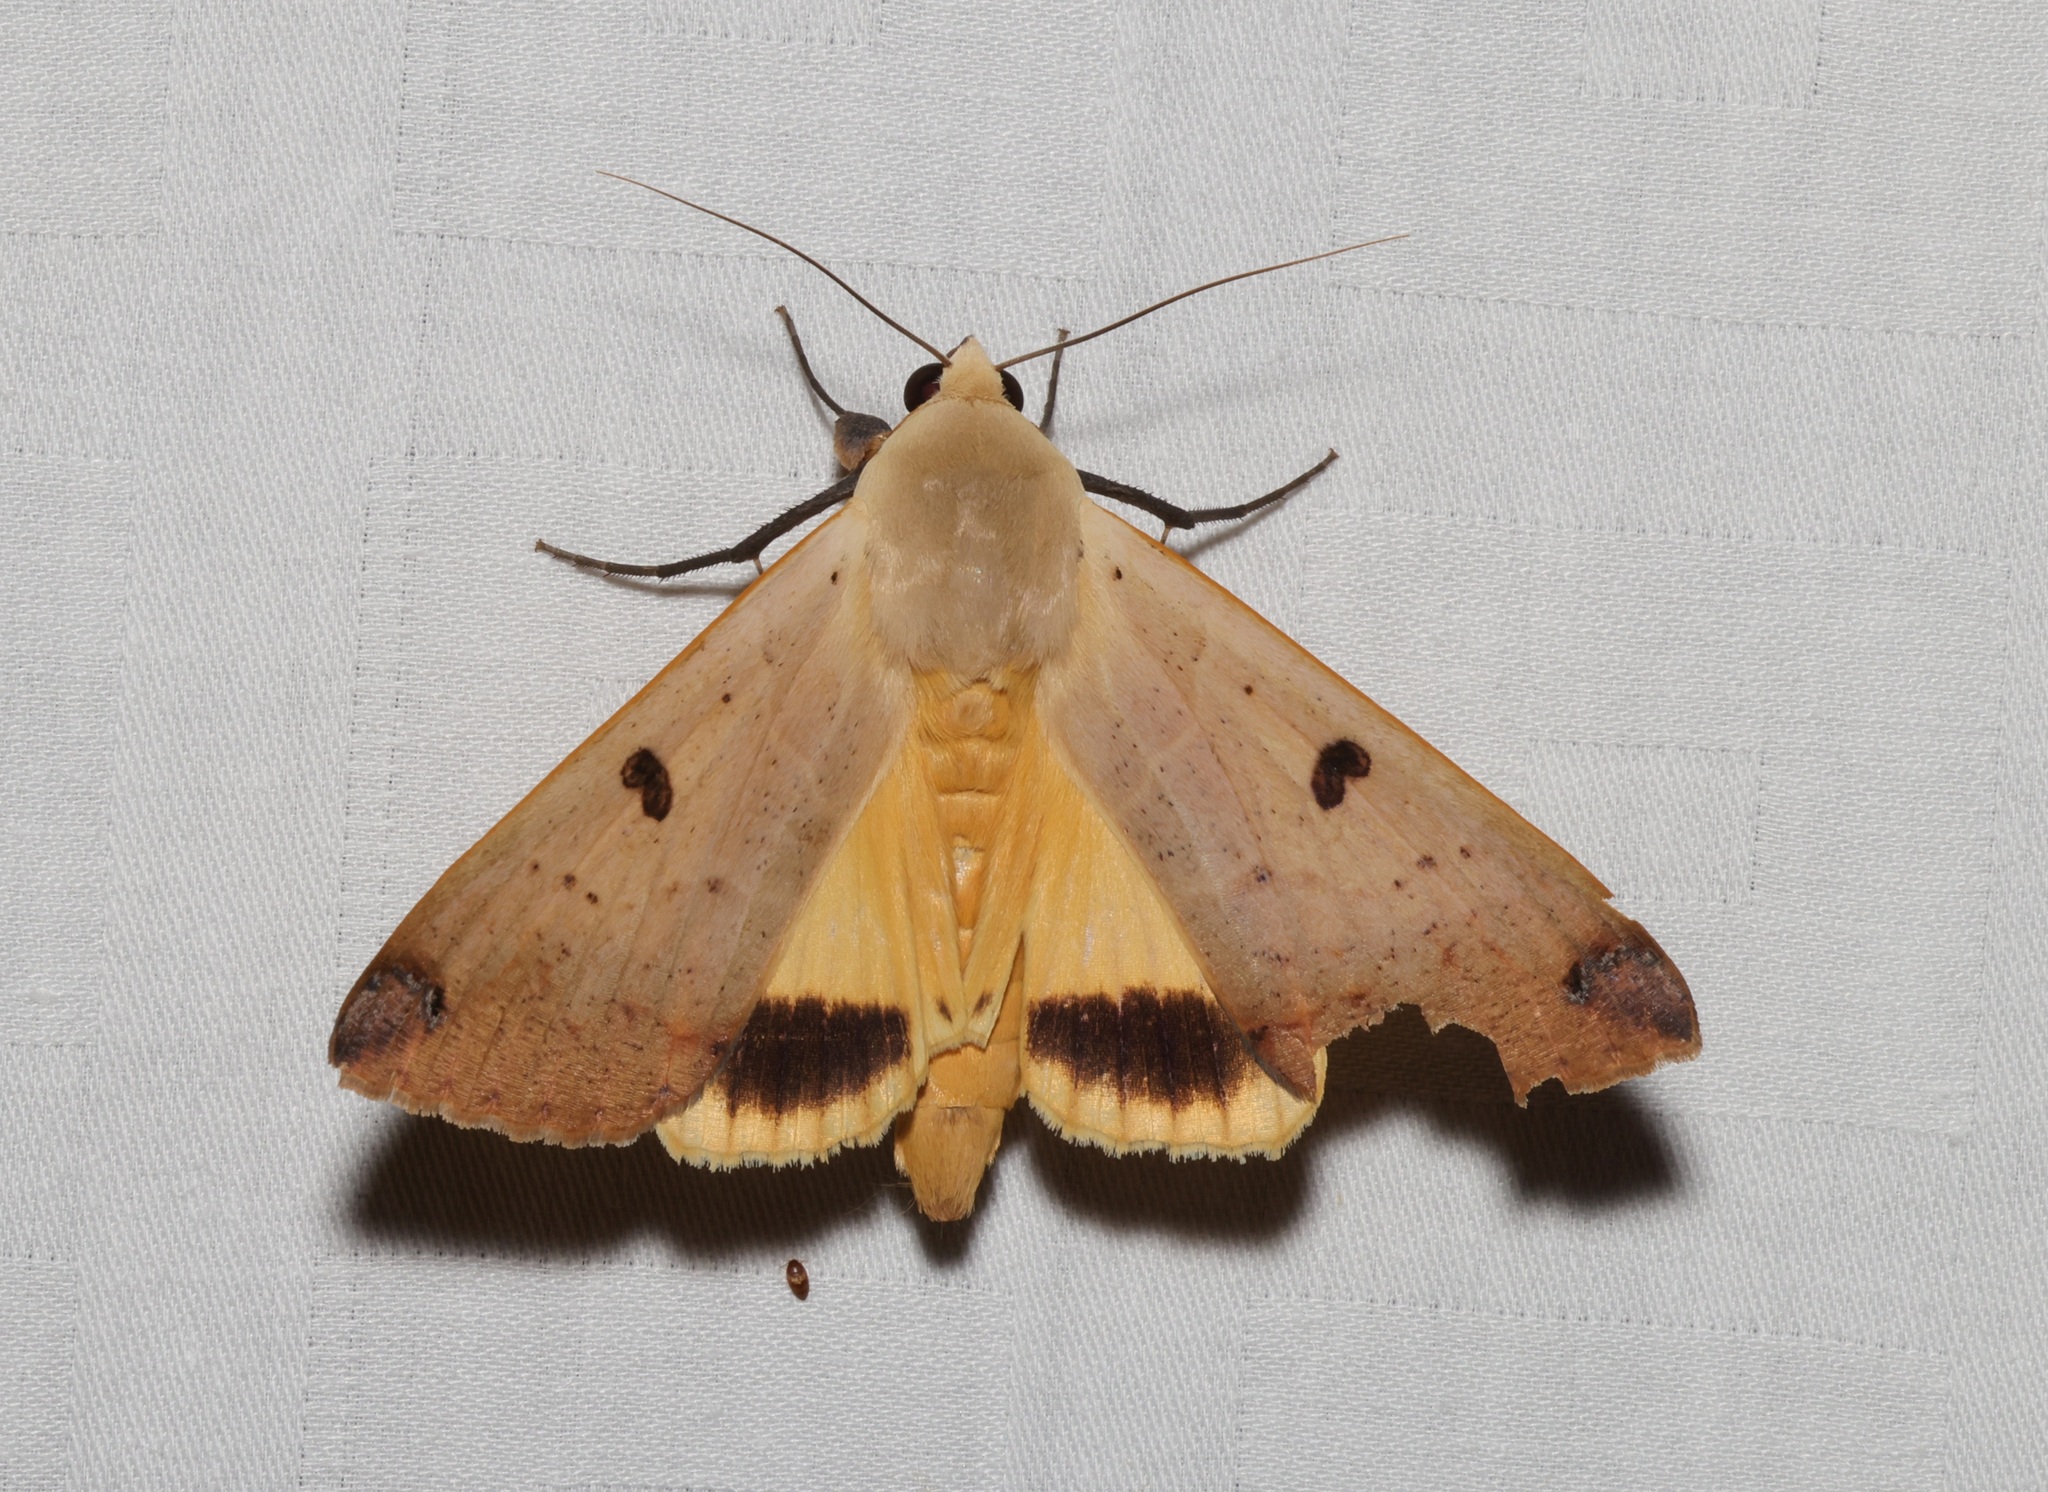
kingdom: Animalia
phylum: Arthropoda
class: Insecta
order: Lepidoptera
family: Erebidae
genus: Ophiusa
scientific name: Ophiusa disjungens
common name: Moth
